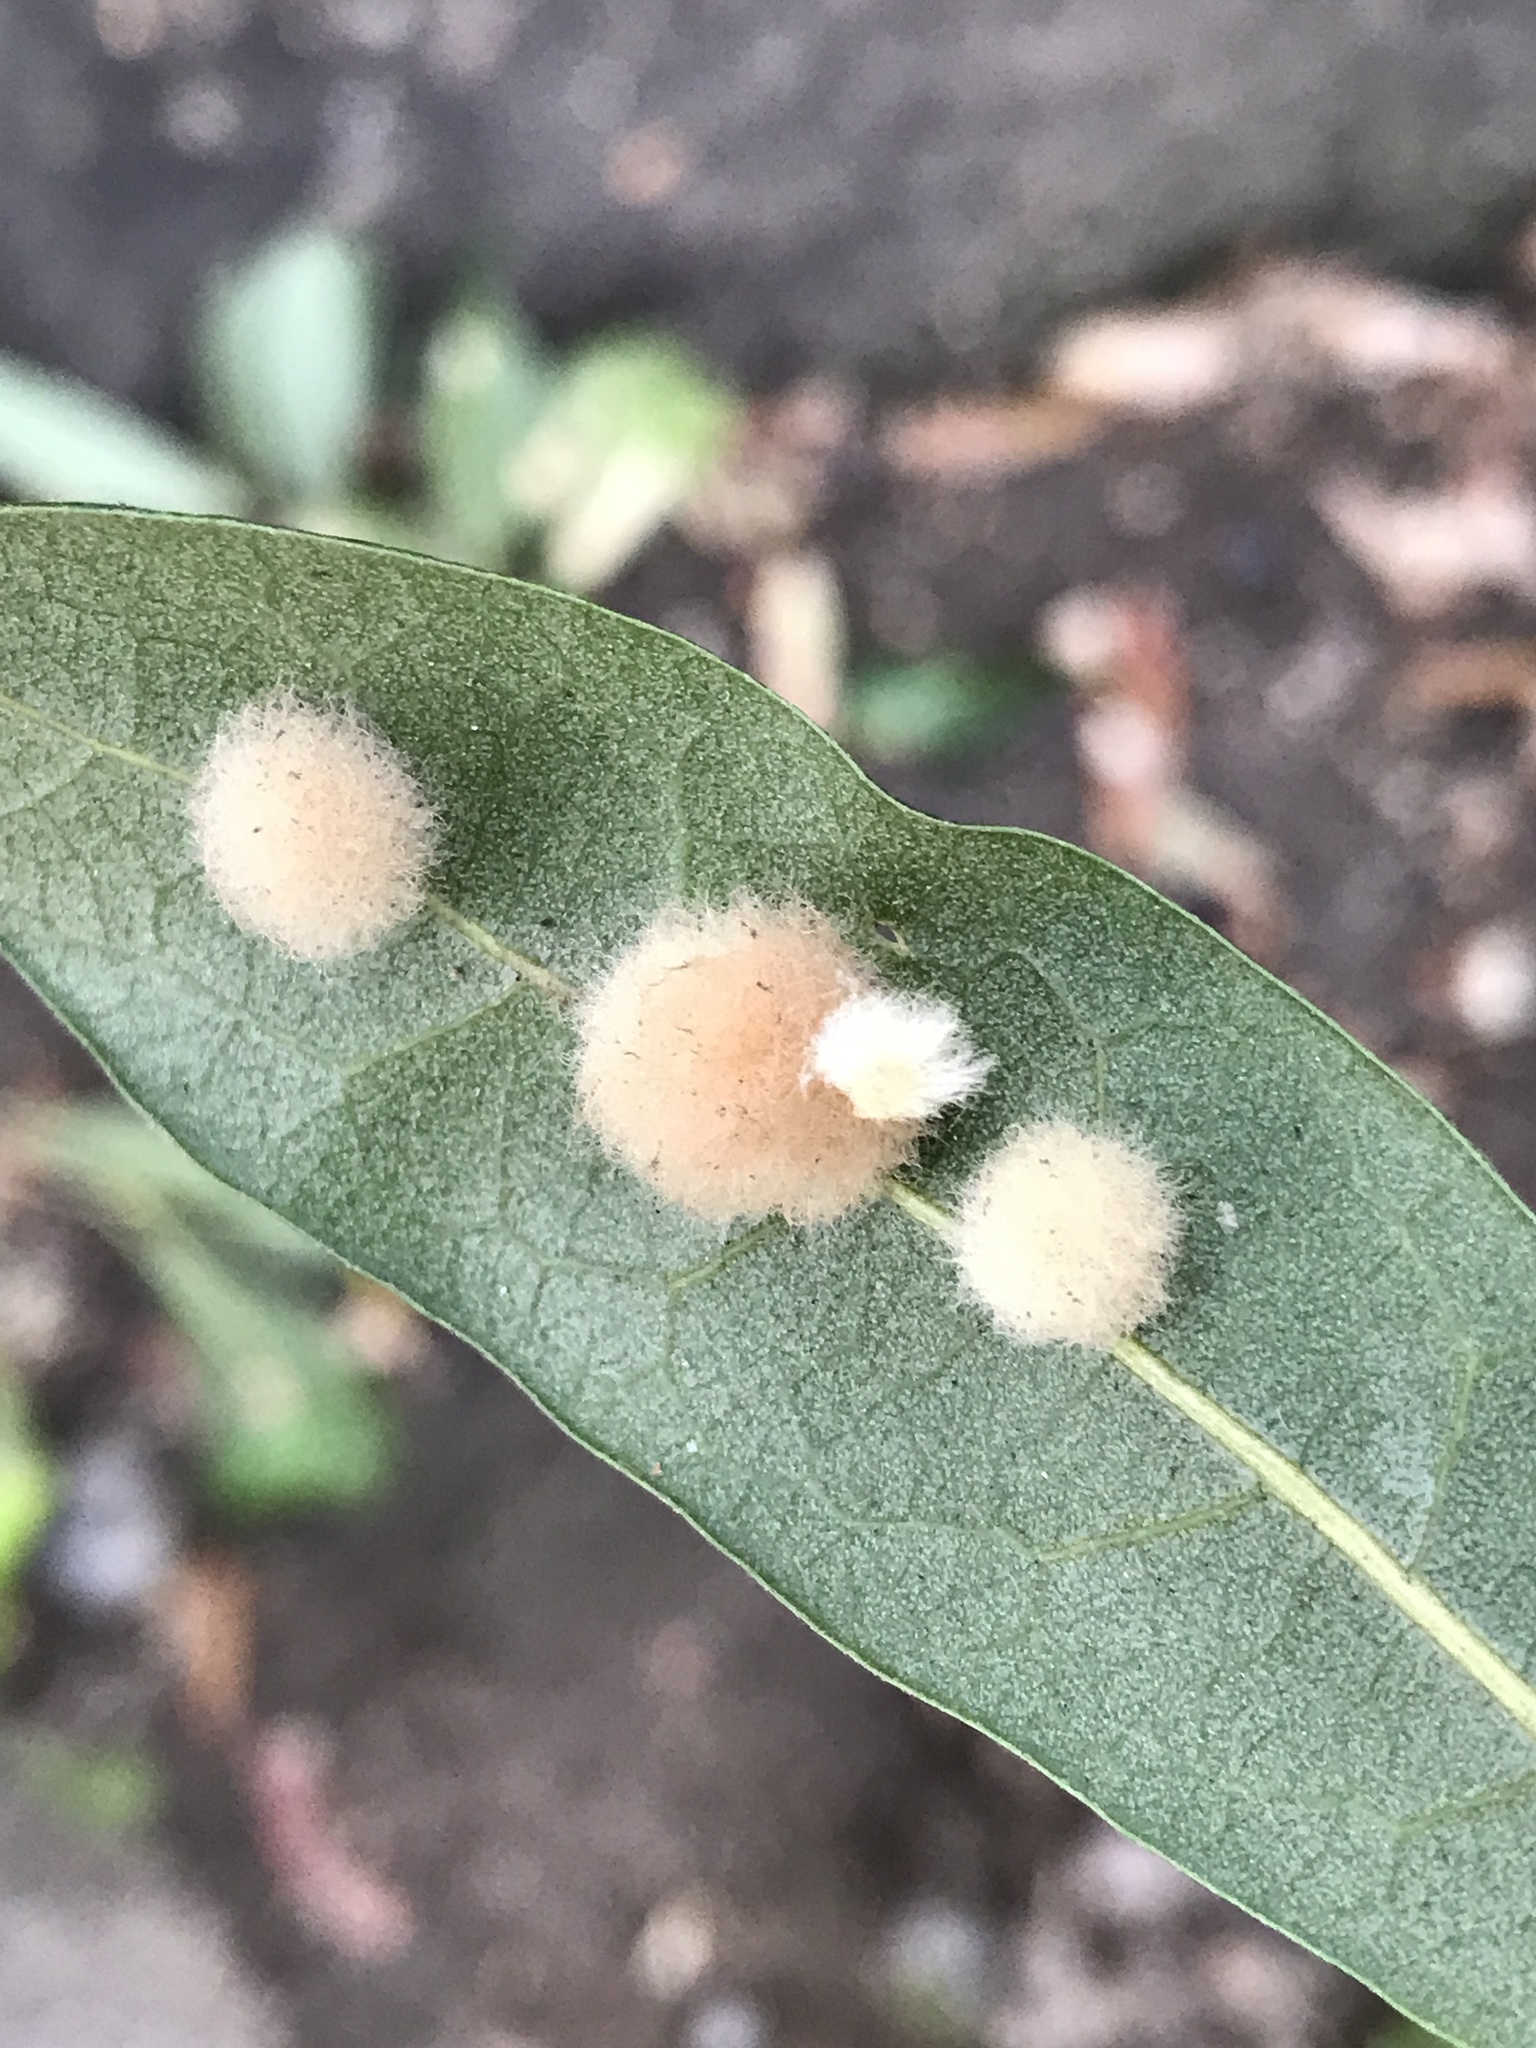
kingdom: Animalia
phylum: Arthropoda
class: Insecta
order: Hymenoptera
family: Cynipidae
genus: Andricus
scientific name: Andricus Druon quercuslanigerum
